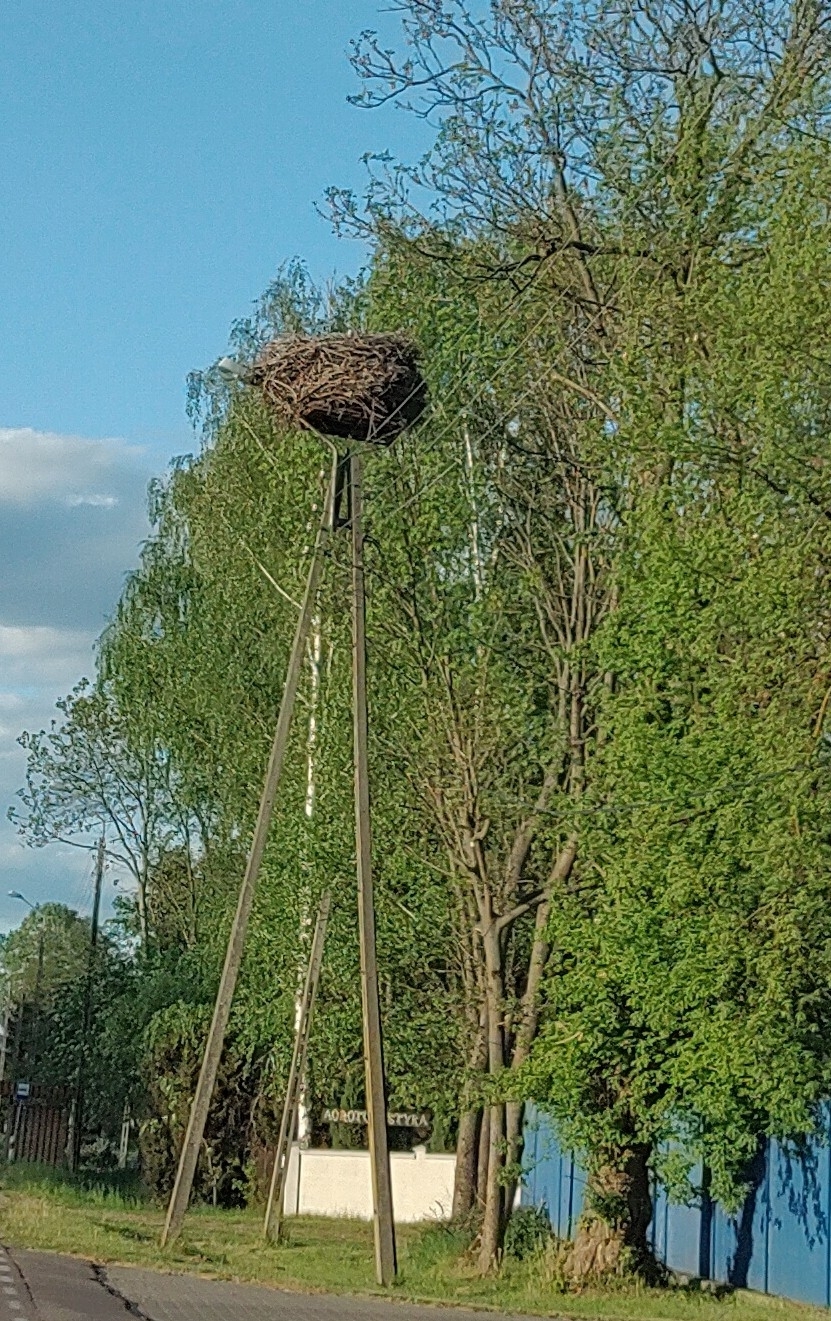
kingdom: Animalia
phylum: Chordata
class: Aves
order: Ciconiiformes
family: Ciconiidae
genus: Ciconia
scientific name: Ciconia ciconia
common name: White stork
